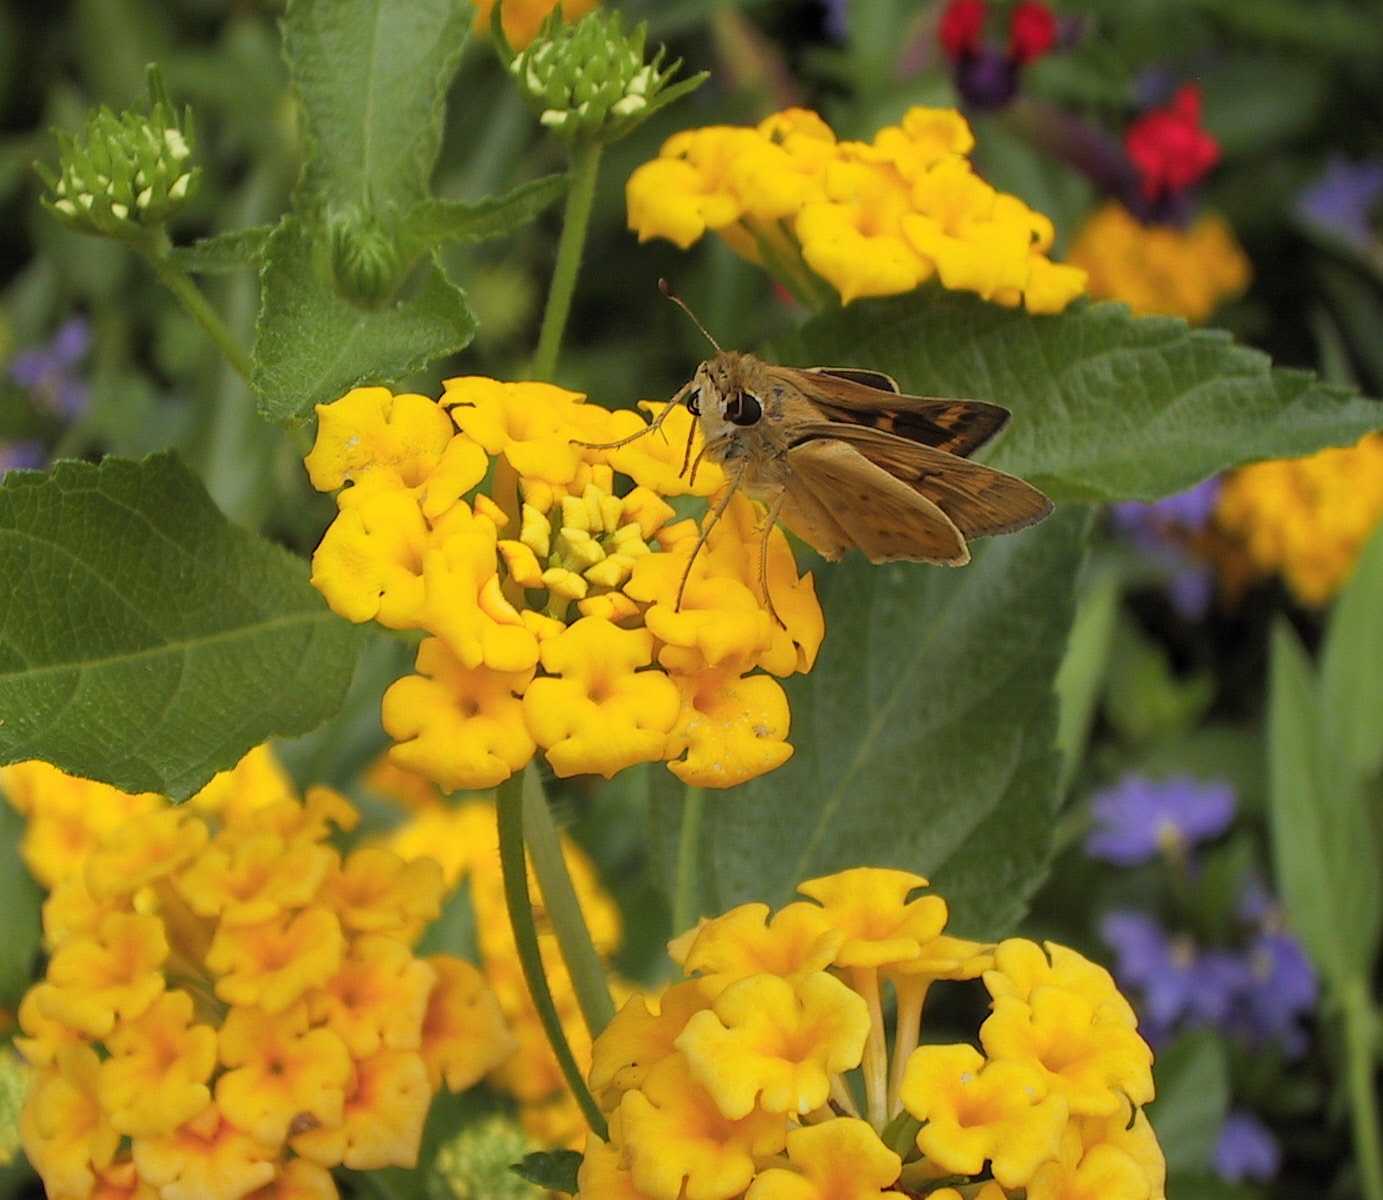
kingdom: Animalia
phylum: Arthropoda
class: Insecta
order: Lepidoptera
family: Hesperiidae
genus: Hylephila
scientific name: Hylephila phyleus
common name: Fiery skipper
